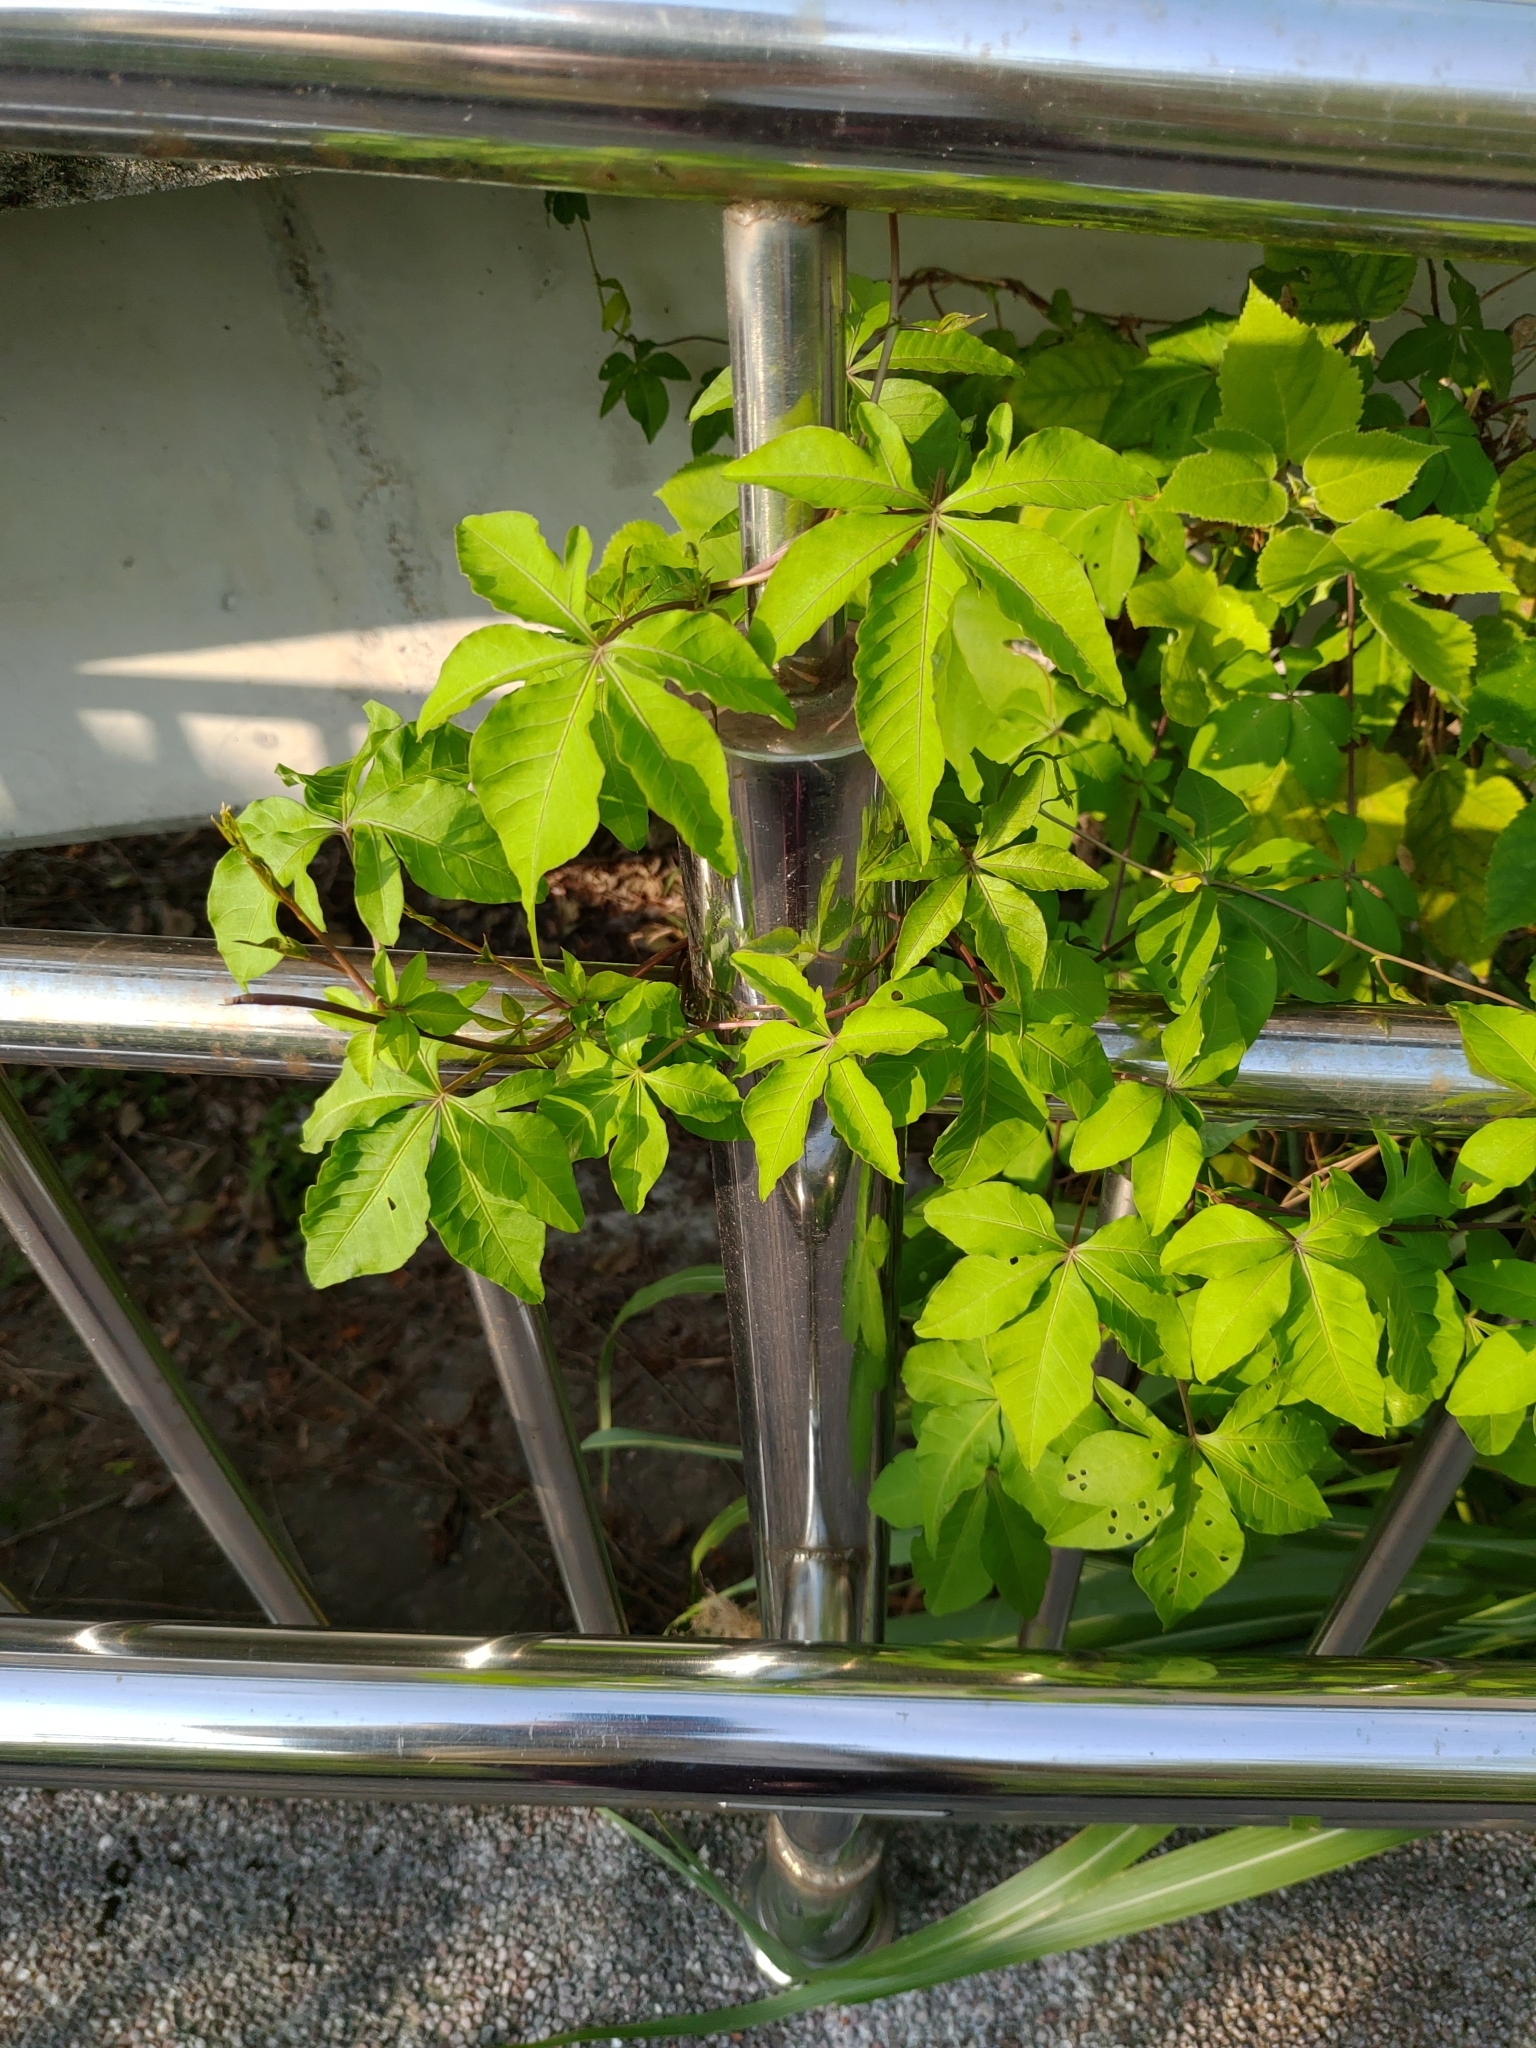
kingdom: Plantae
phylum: Tracheophyta
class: Magnoliopsida
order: Solanales
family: Convolvulaceae
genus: Ipomoea
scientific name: Ipomoea cairica
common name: Mile a minute vine
